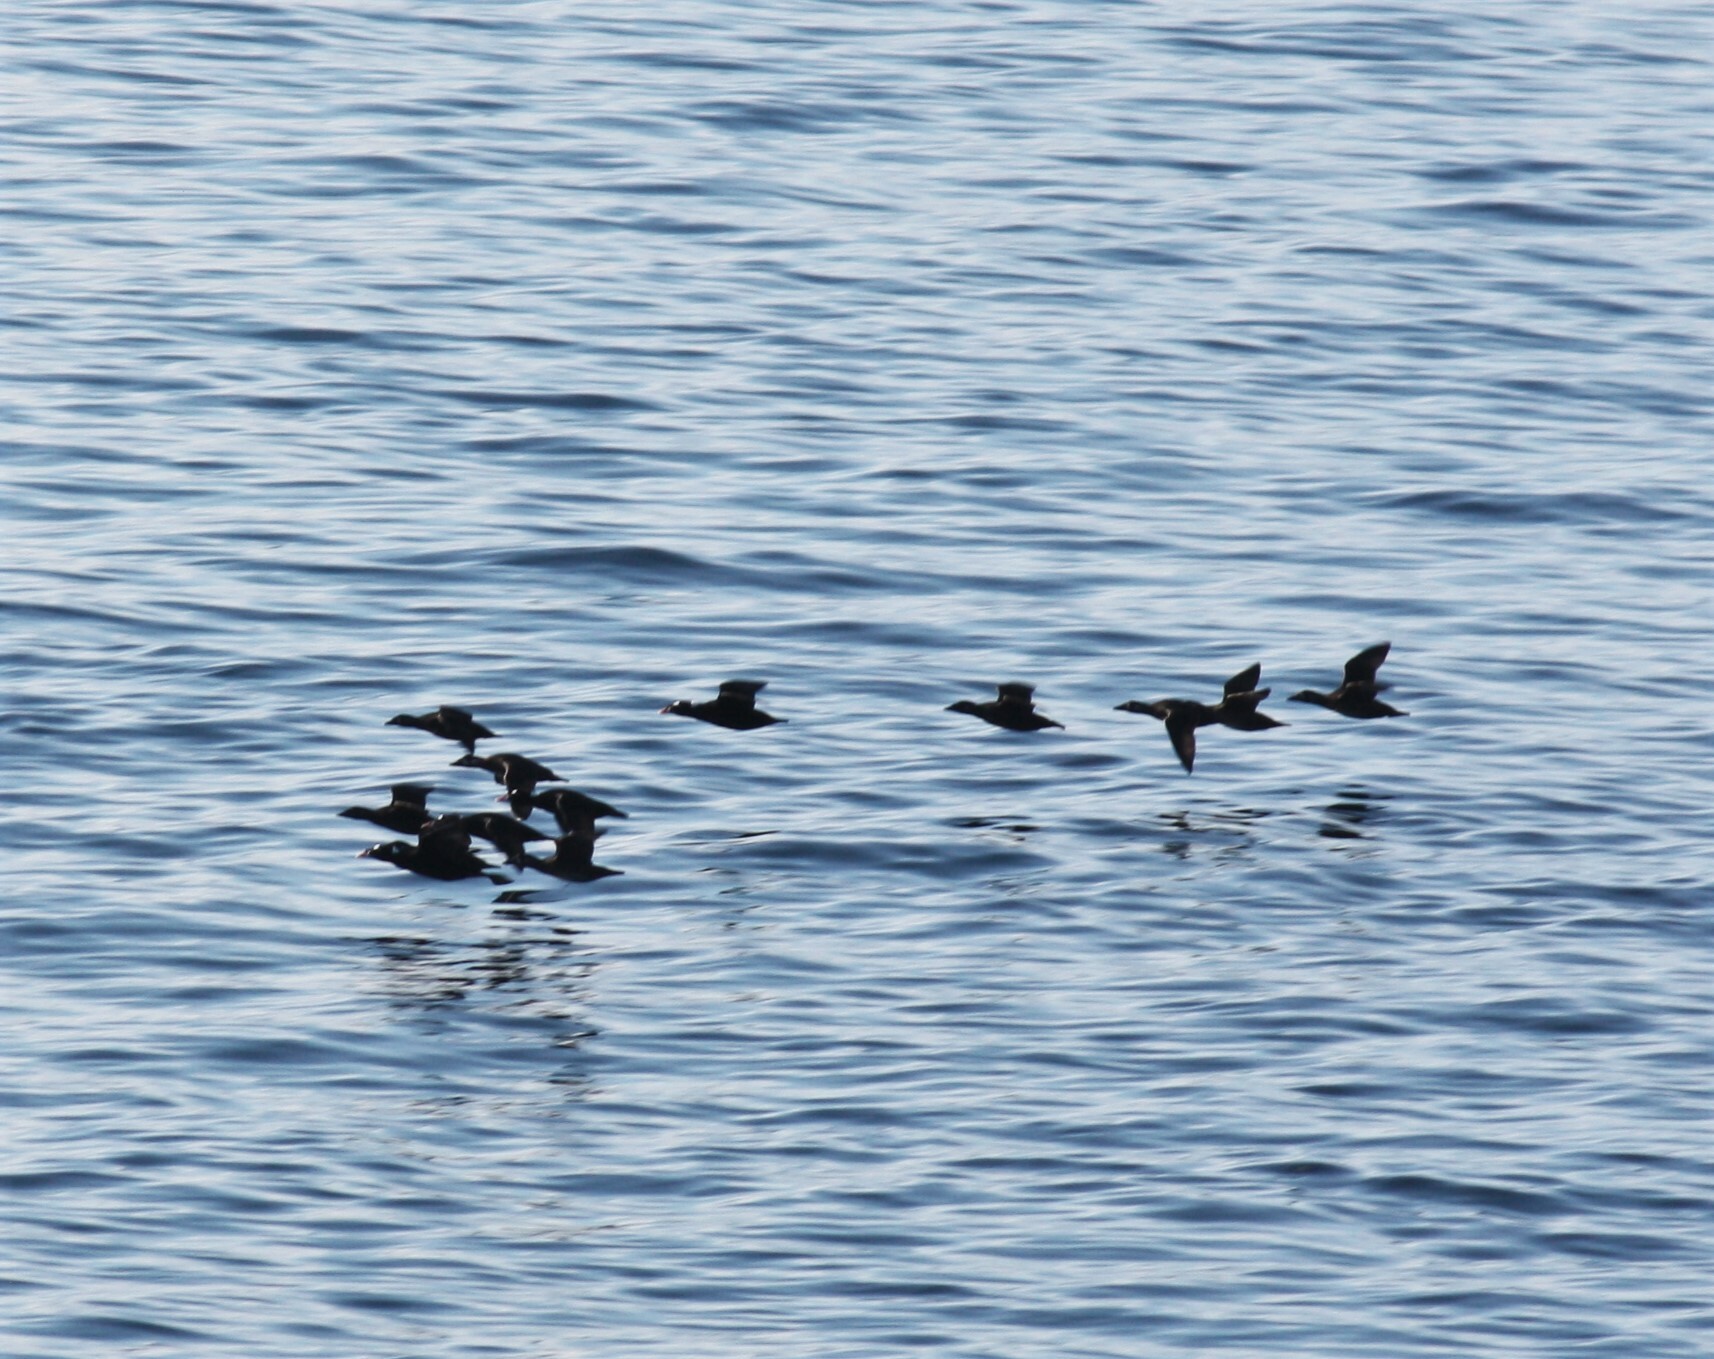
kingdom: Animalia
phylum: Chordata
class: Aves
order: Anseriformes
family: Anatidae
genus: Melanitta
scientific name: Melanitta perspicillata
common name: Surf scoter
